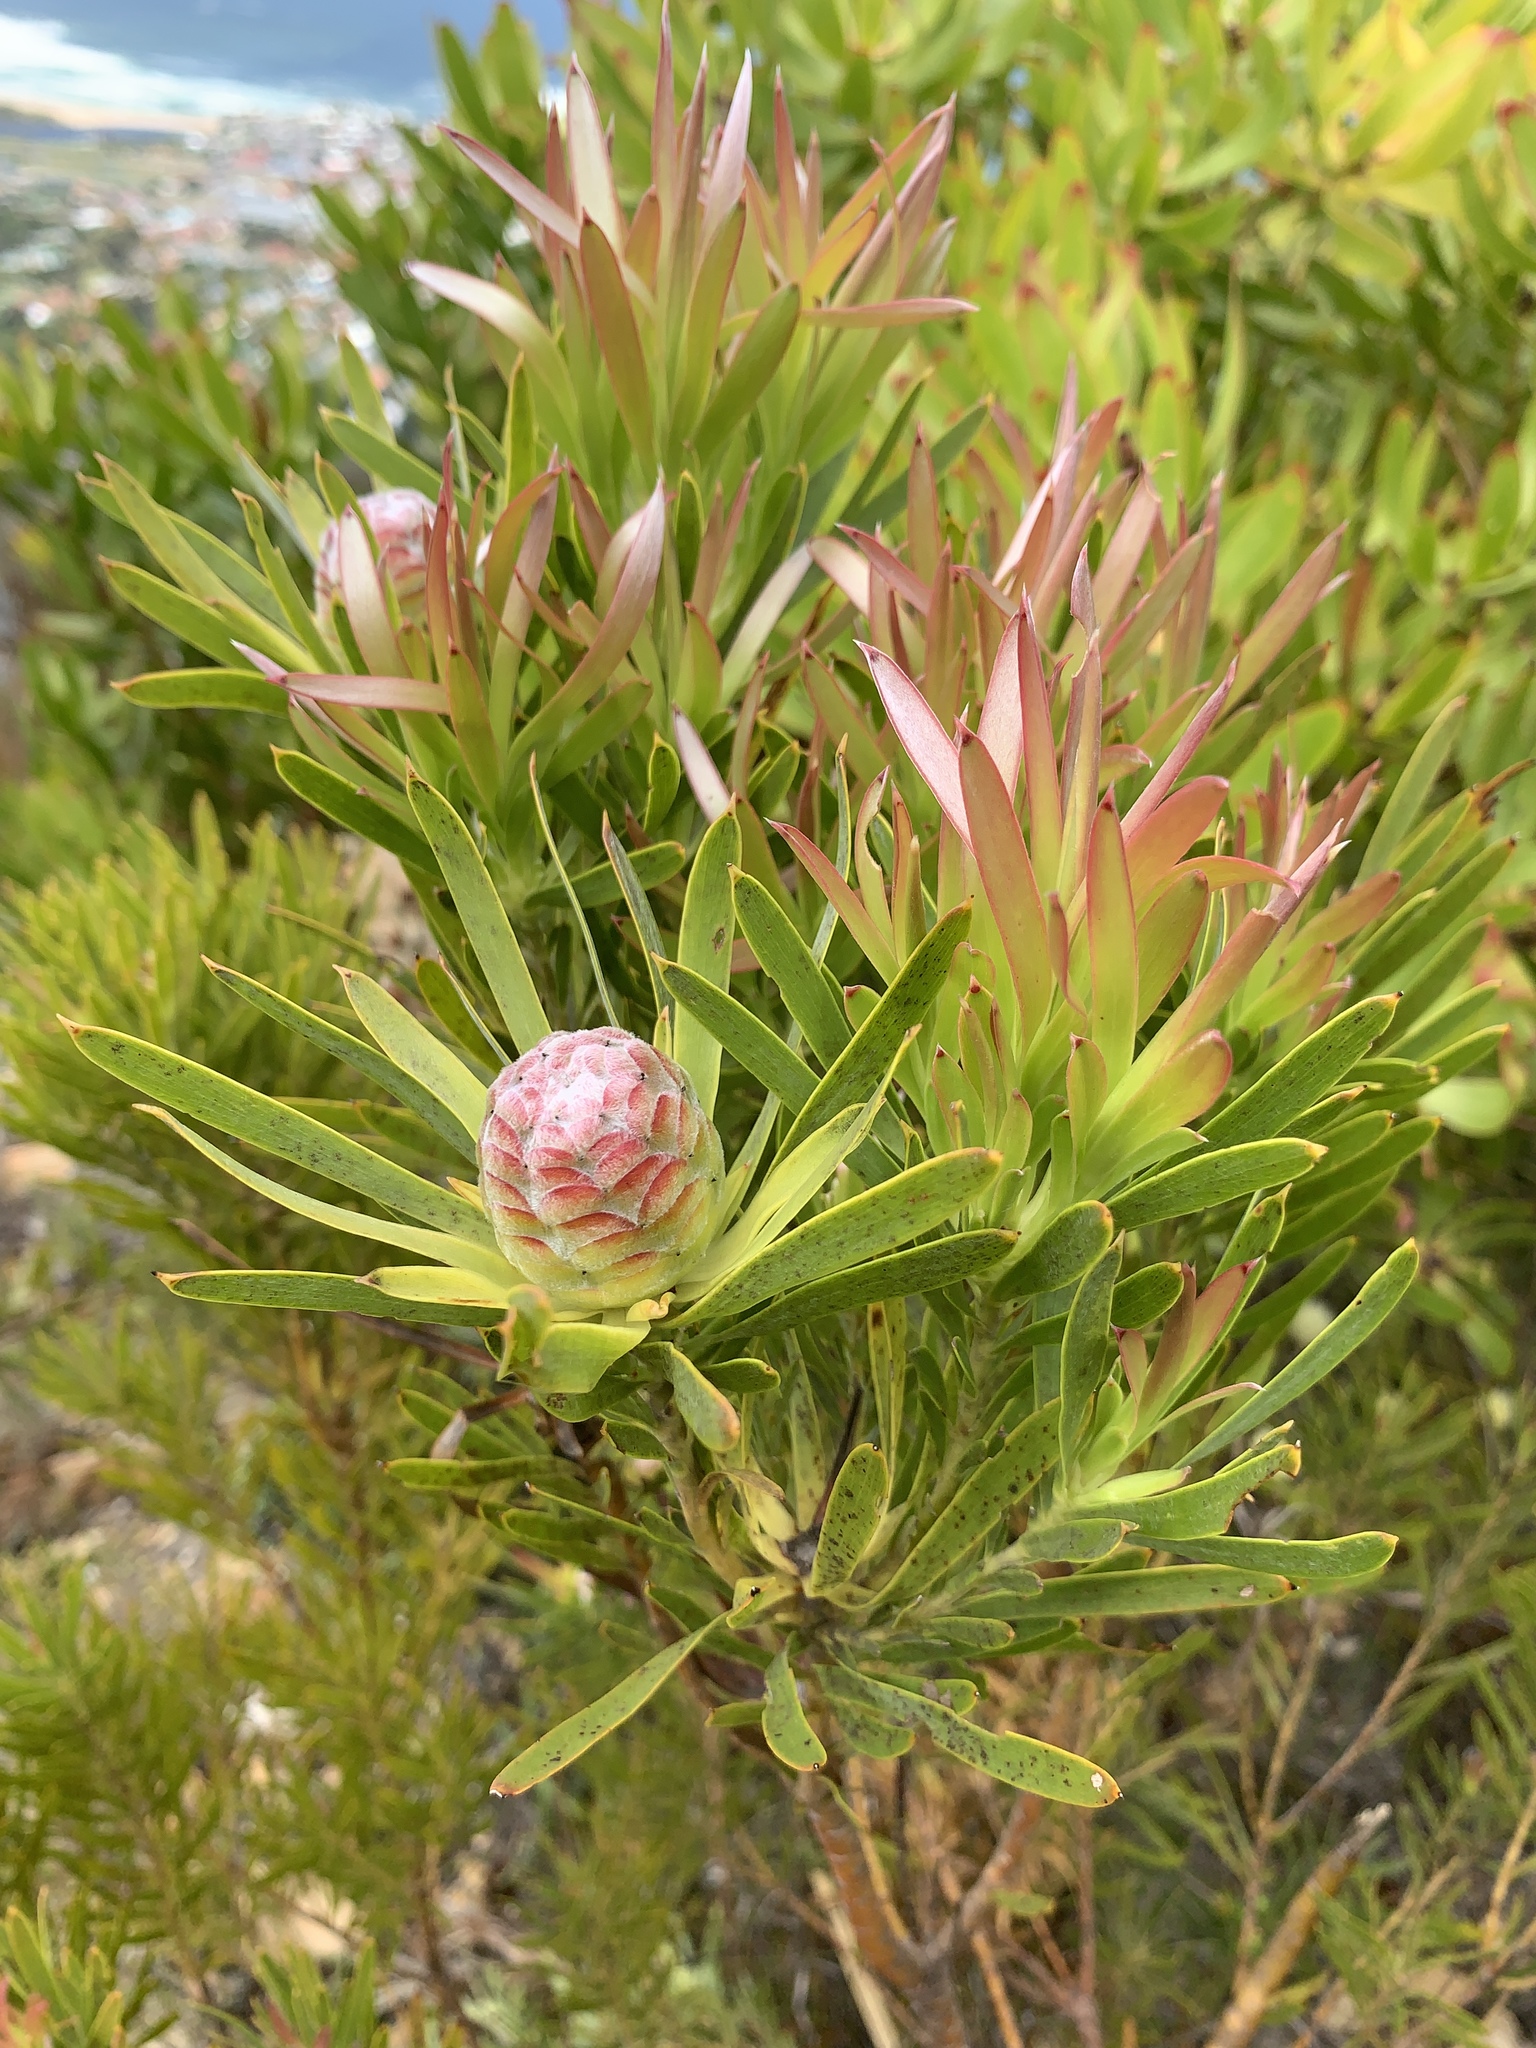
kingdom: Plantae
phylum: Tracheophyta
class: Magnoliopsida
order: Proteales
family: Proteaceae
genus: Leucadendron
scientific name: Leucadendron xanthoconus
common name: Sickle-leaf conebush
